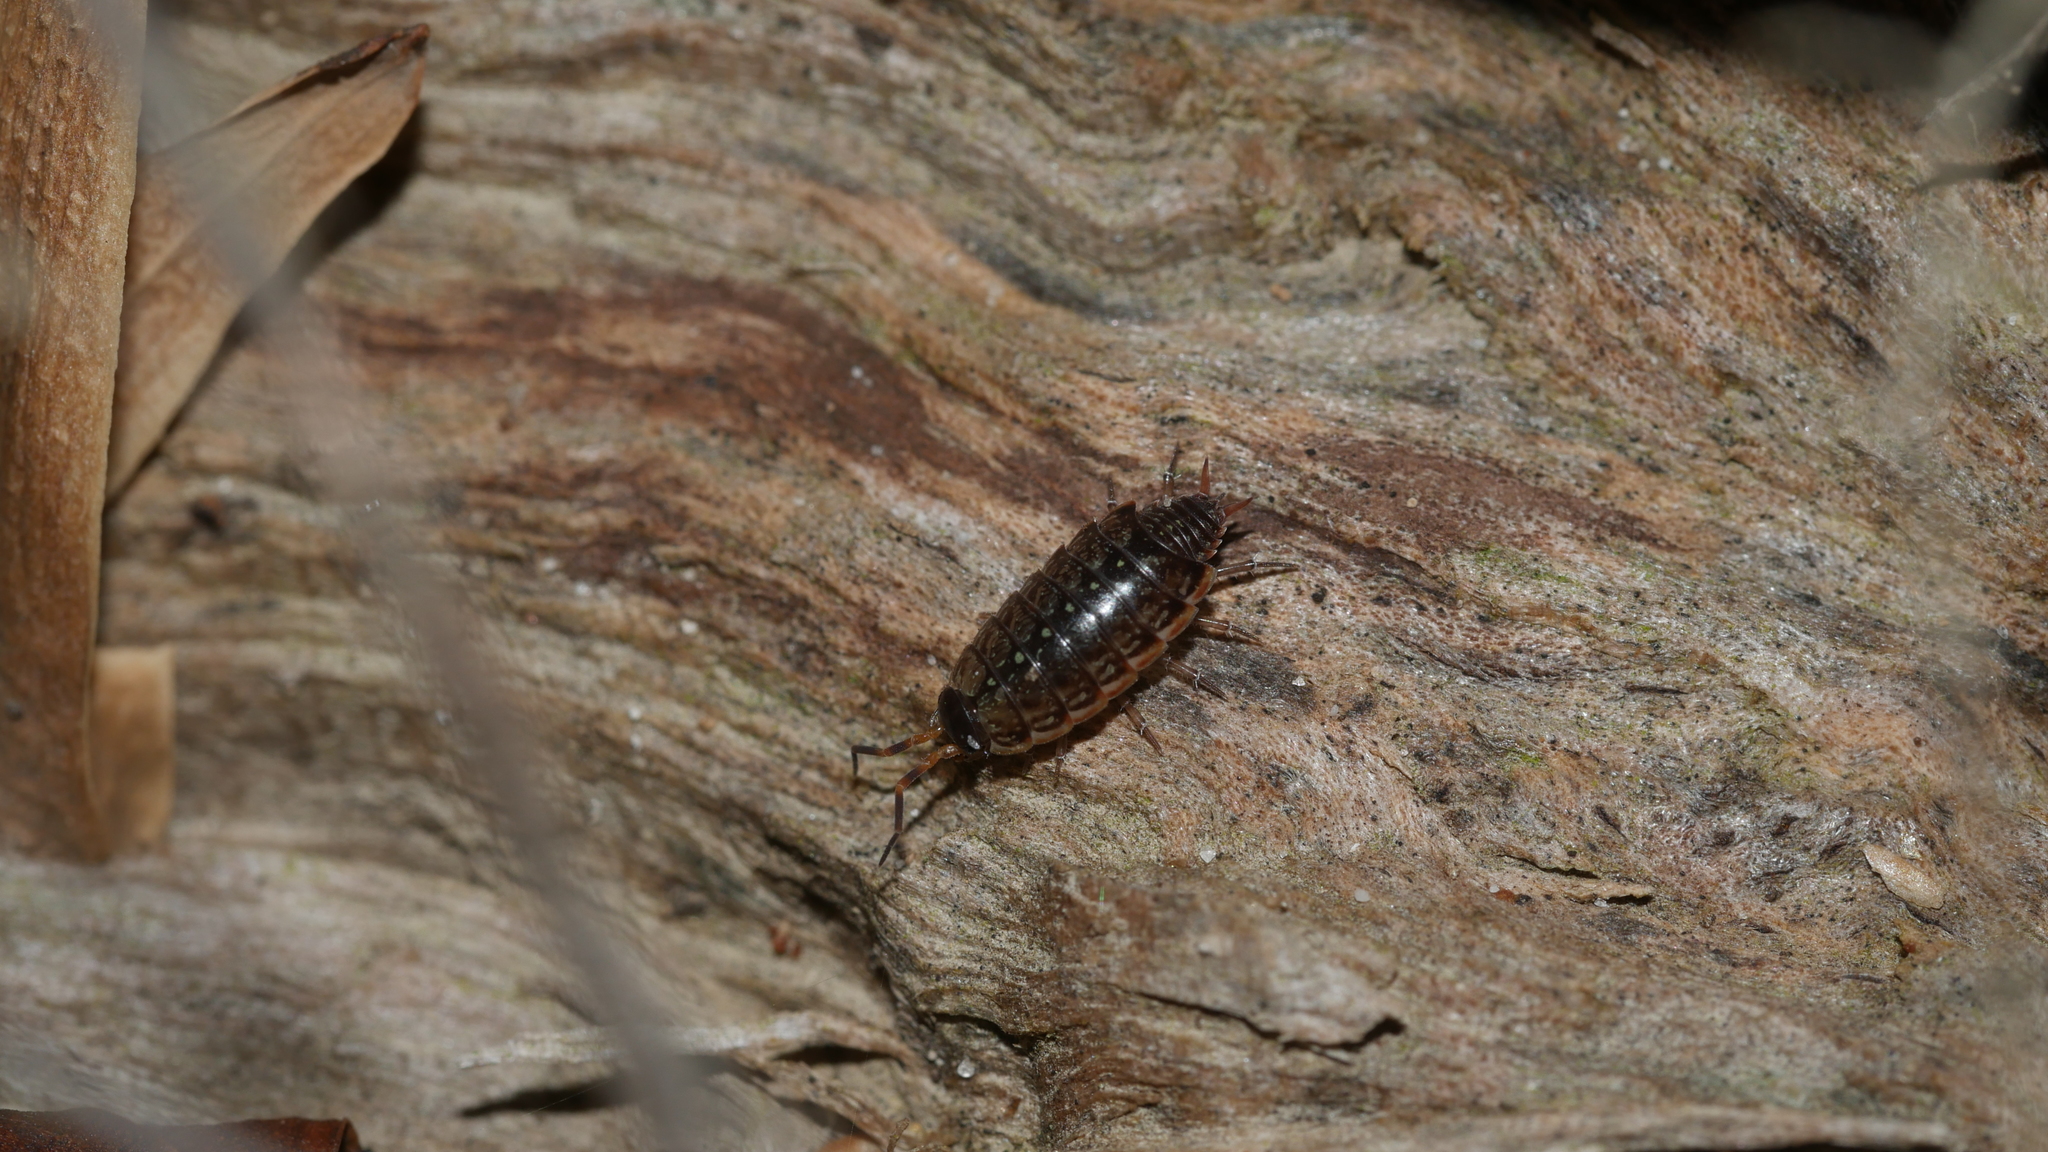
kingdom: Animalia
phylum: Arthropoda
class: Malacostraca
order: Isopoda
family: Philosciidae
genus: Philoscia
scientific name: Philoscia muscorum
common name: Common striped woodlouse
